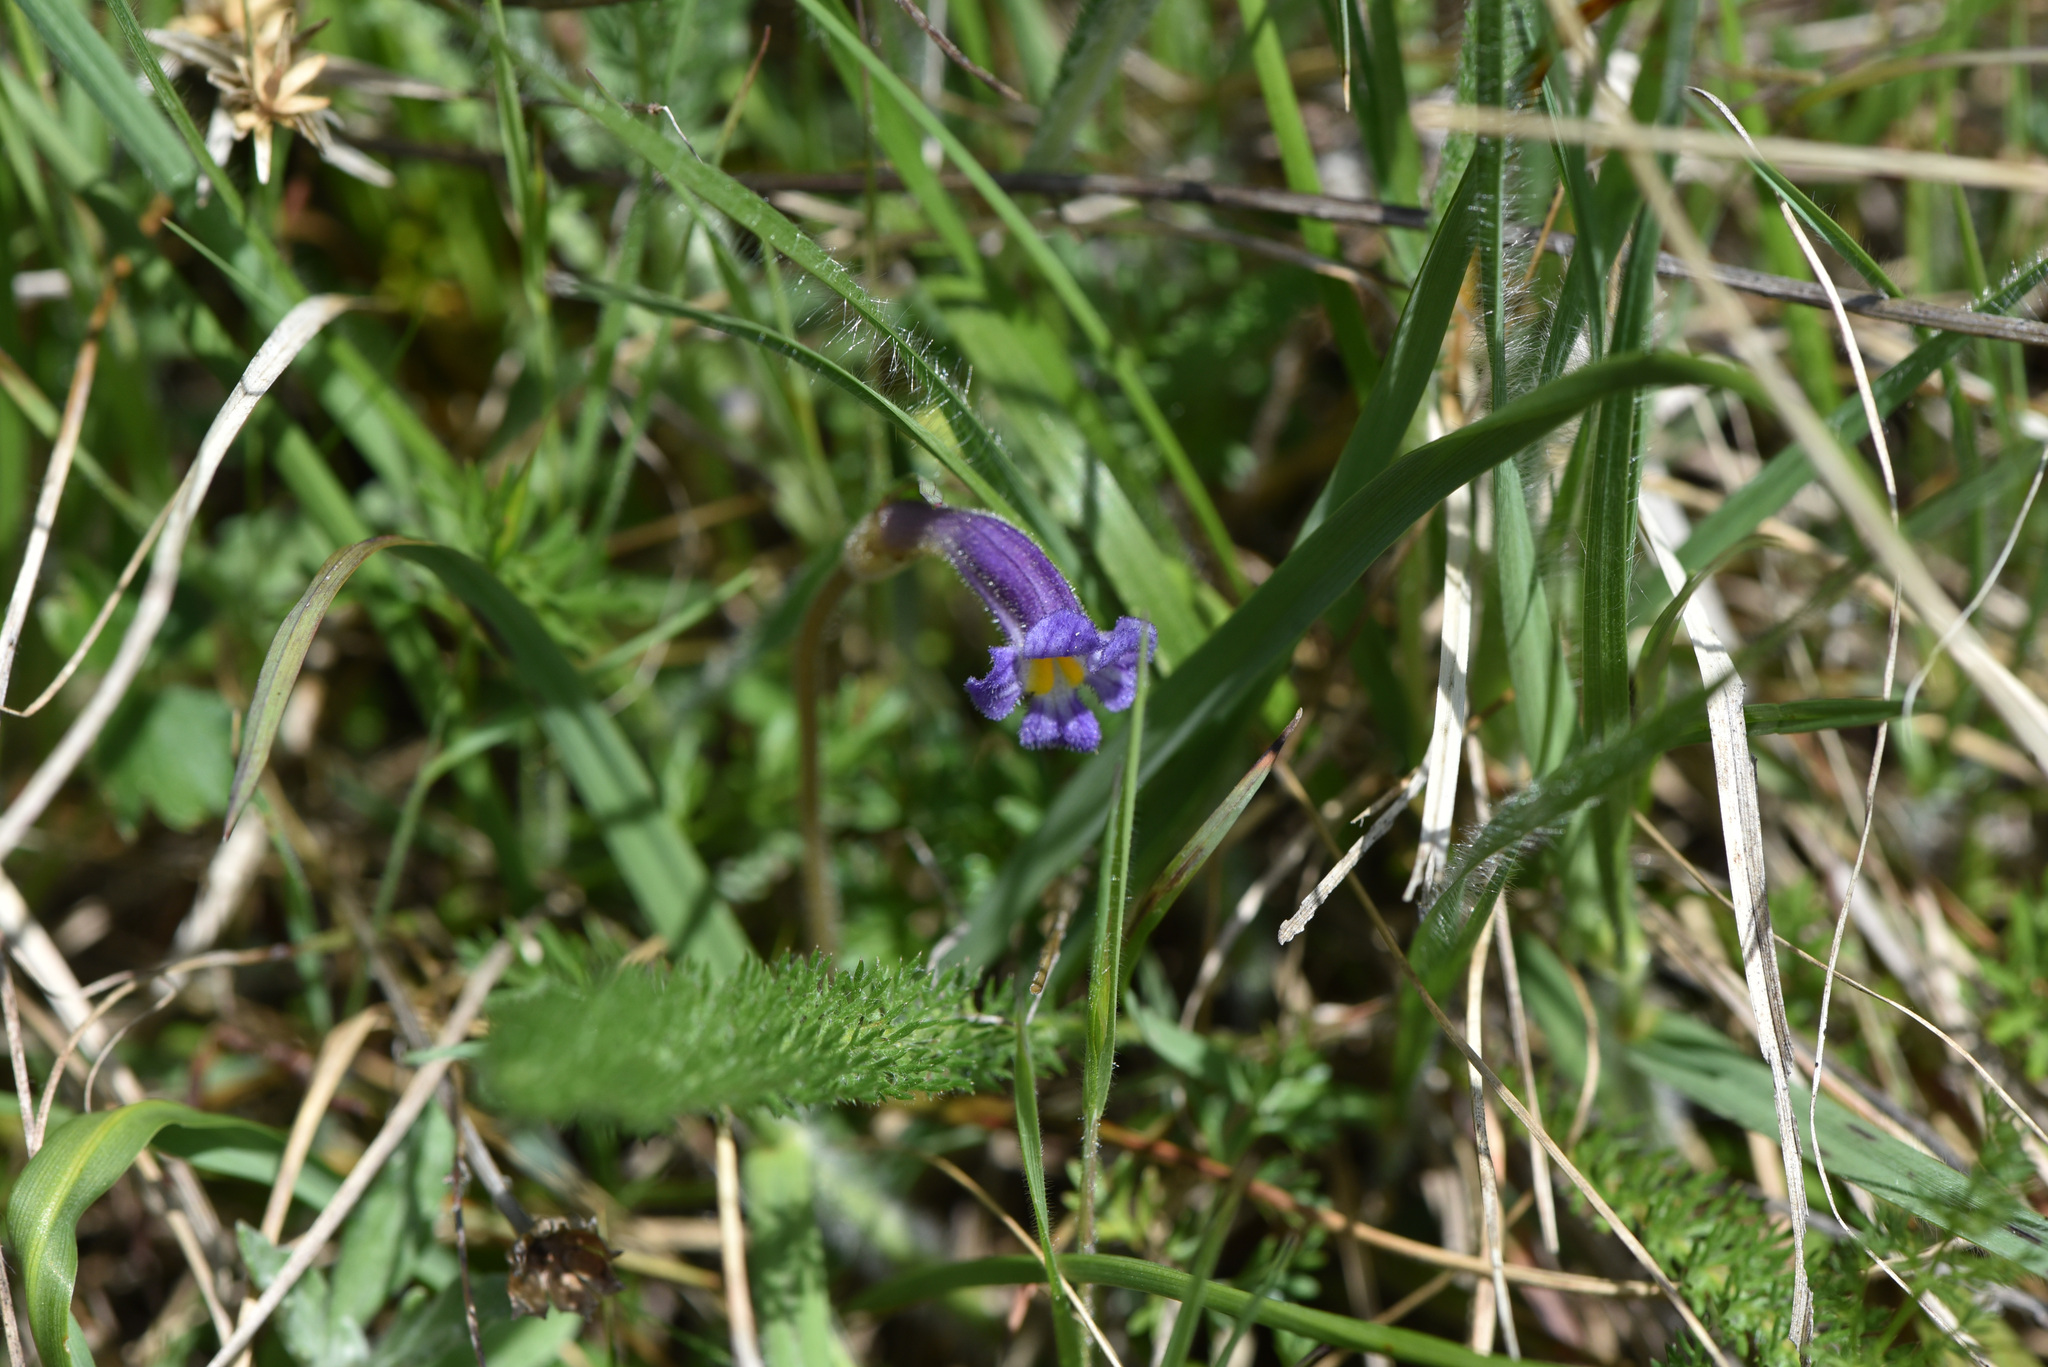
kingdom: Plantae
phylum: Tracheophyta
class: Magnoliopsida
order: Lamiales
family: Orobanchaceae
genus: Aphyllon
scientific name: Aphyllon uniflorum
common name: One-flowered broomrape
